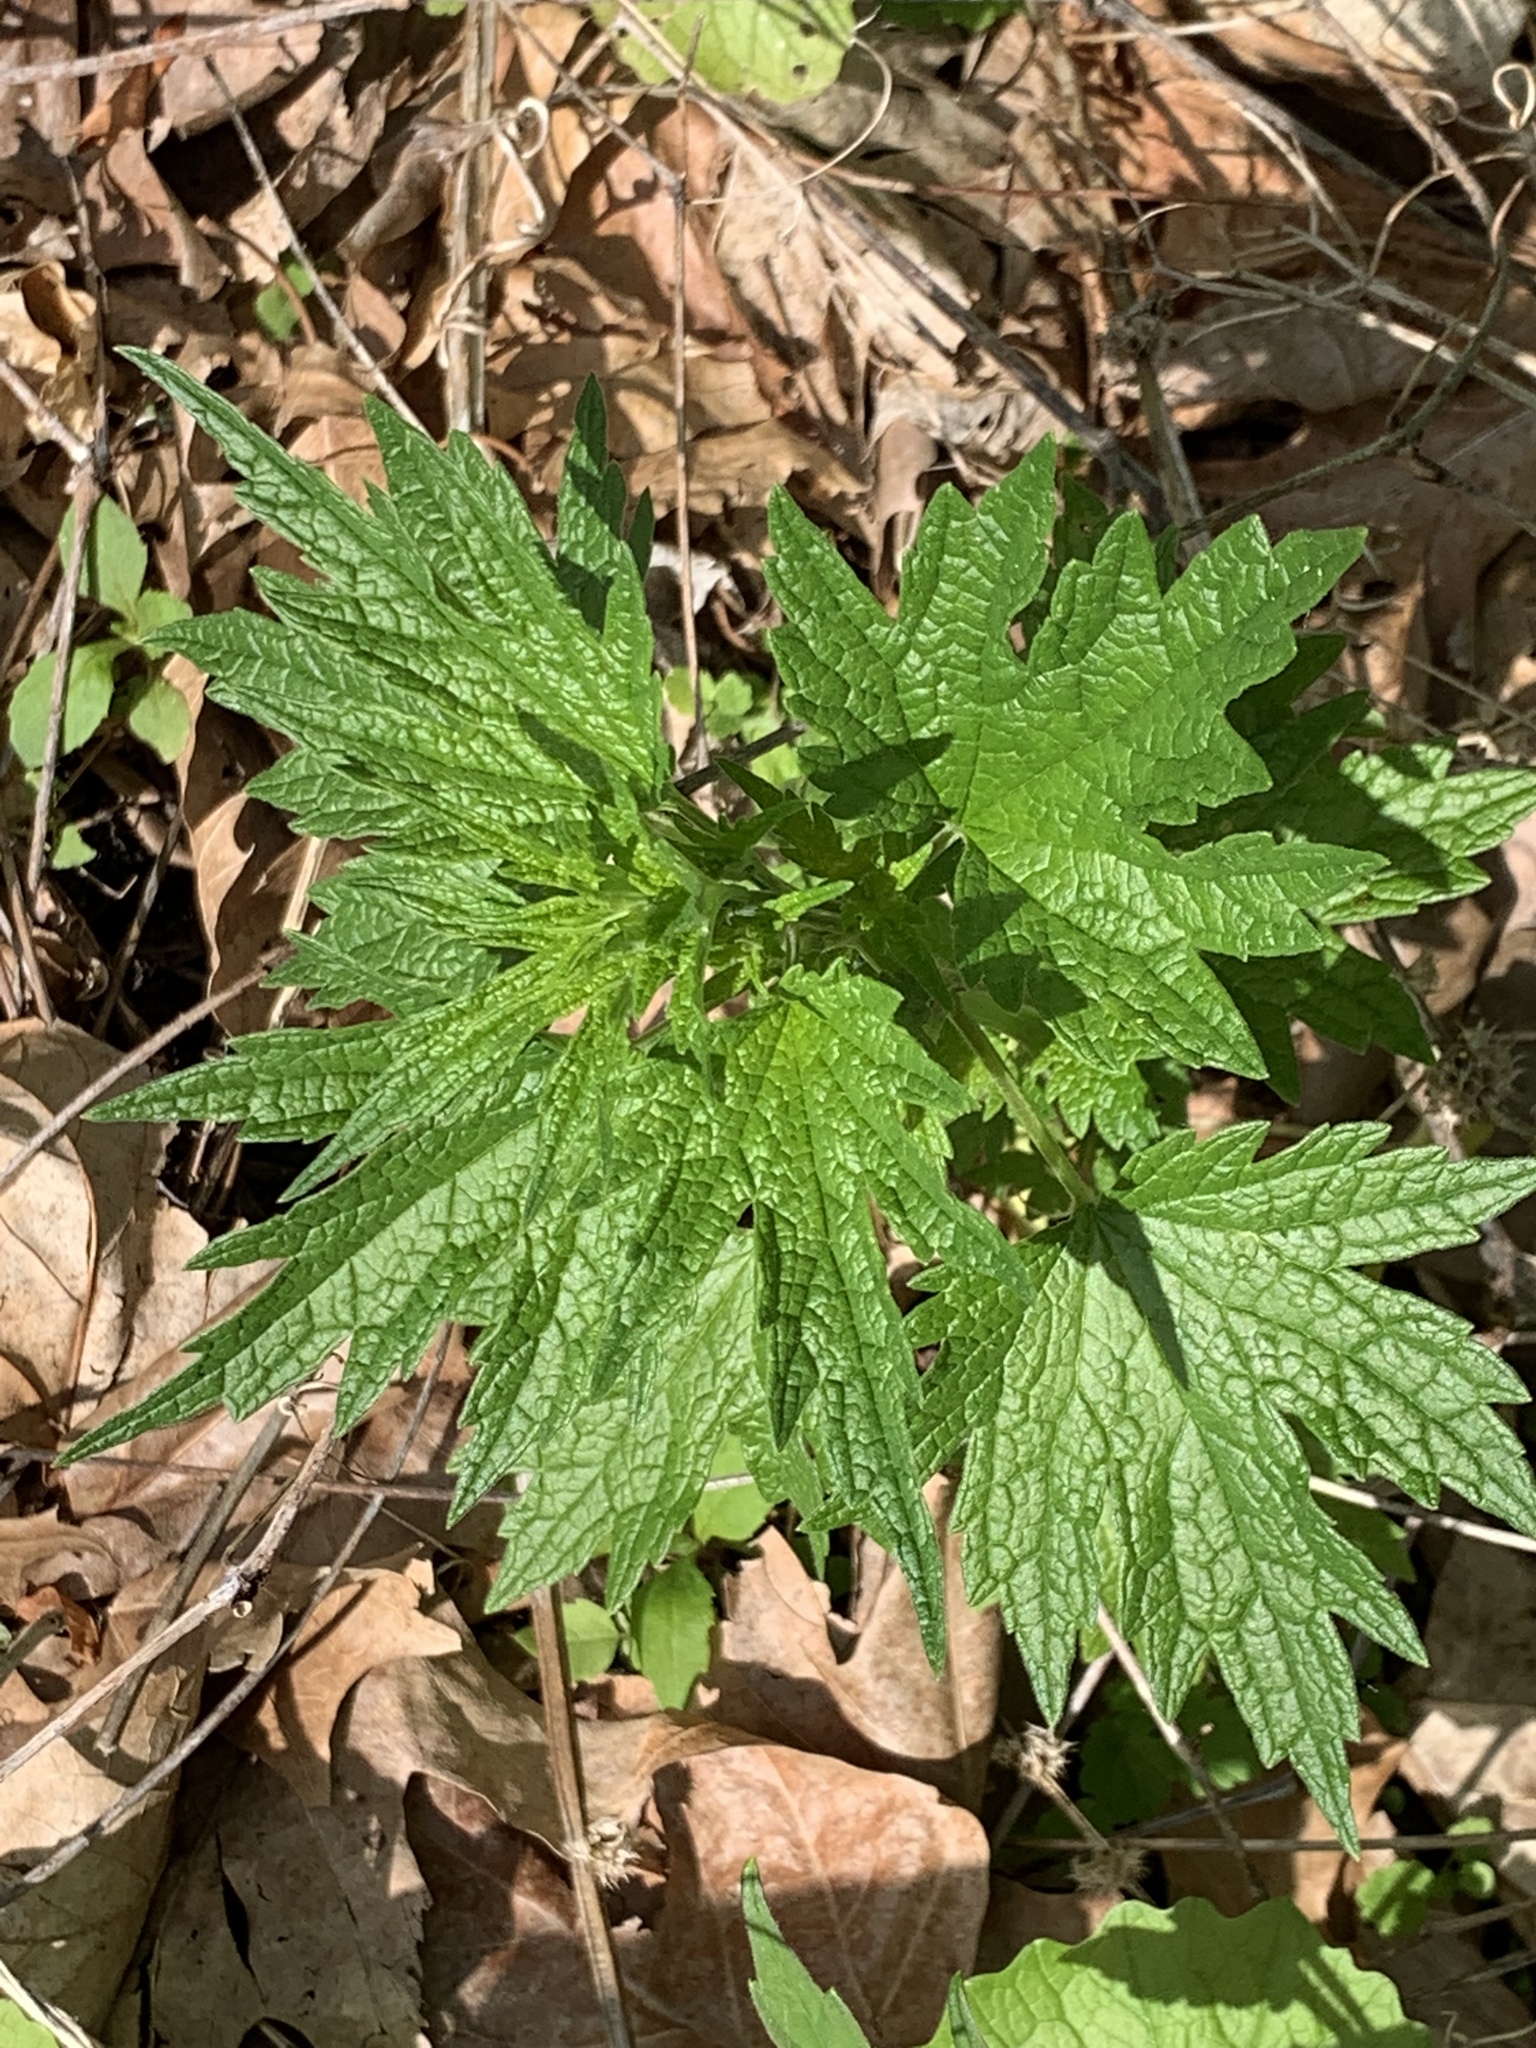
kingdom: Plantae
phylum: Tracheophyta
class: Magnoliopsida
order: Lamiales
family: Lamiaceae
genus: Leonurus
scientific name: Leonurus cardiaca
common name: Motherwort
